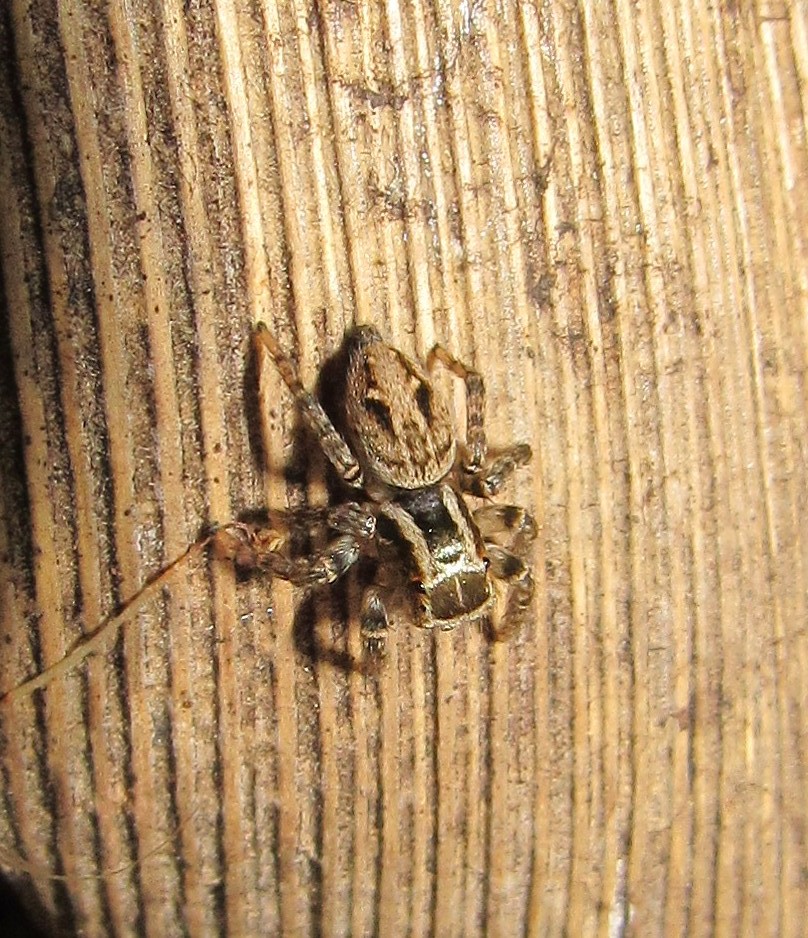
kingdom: Animalia
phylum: Arthropoda
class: Arachnida
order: Araneae
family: Salticidae
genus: Aphirape
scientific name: Aphirape misionensis
